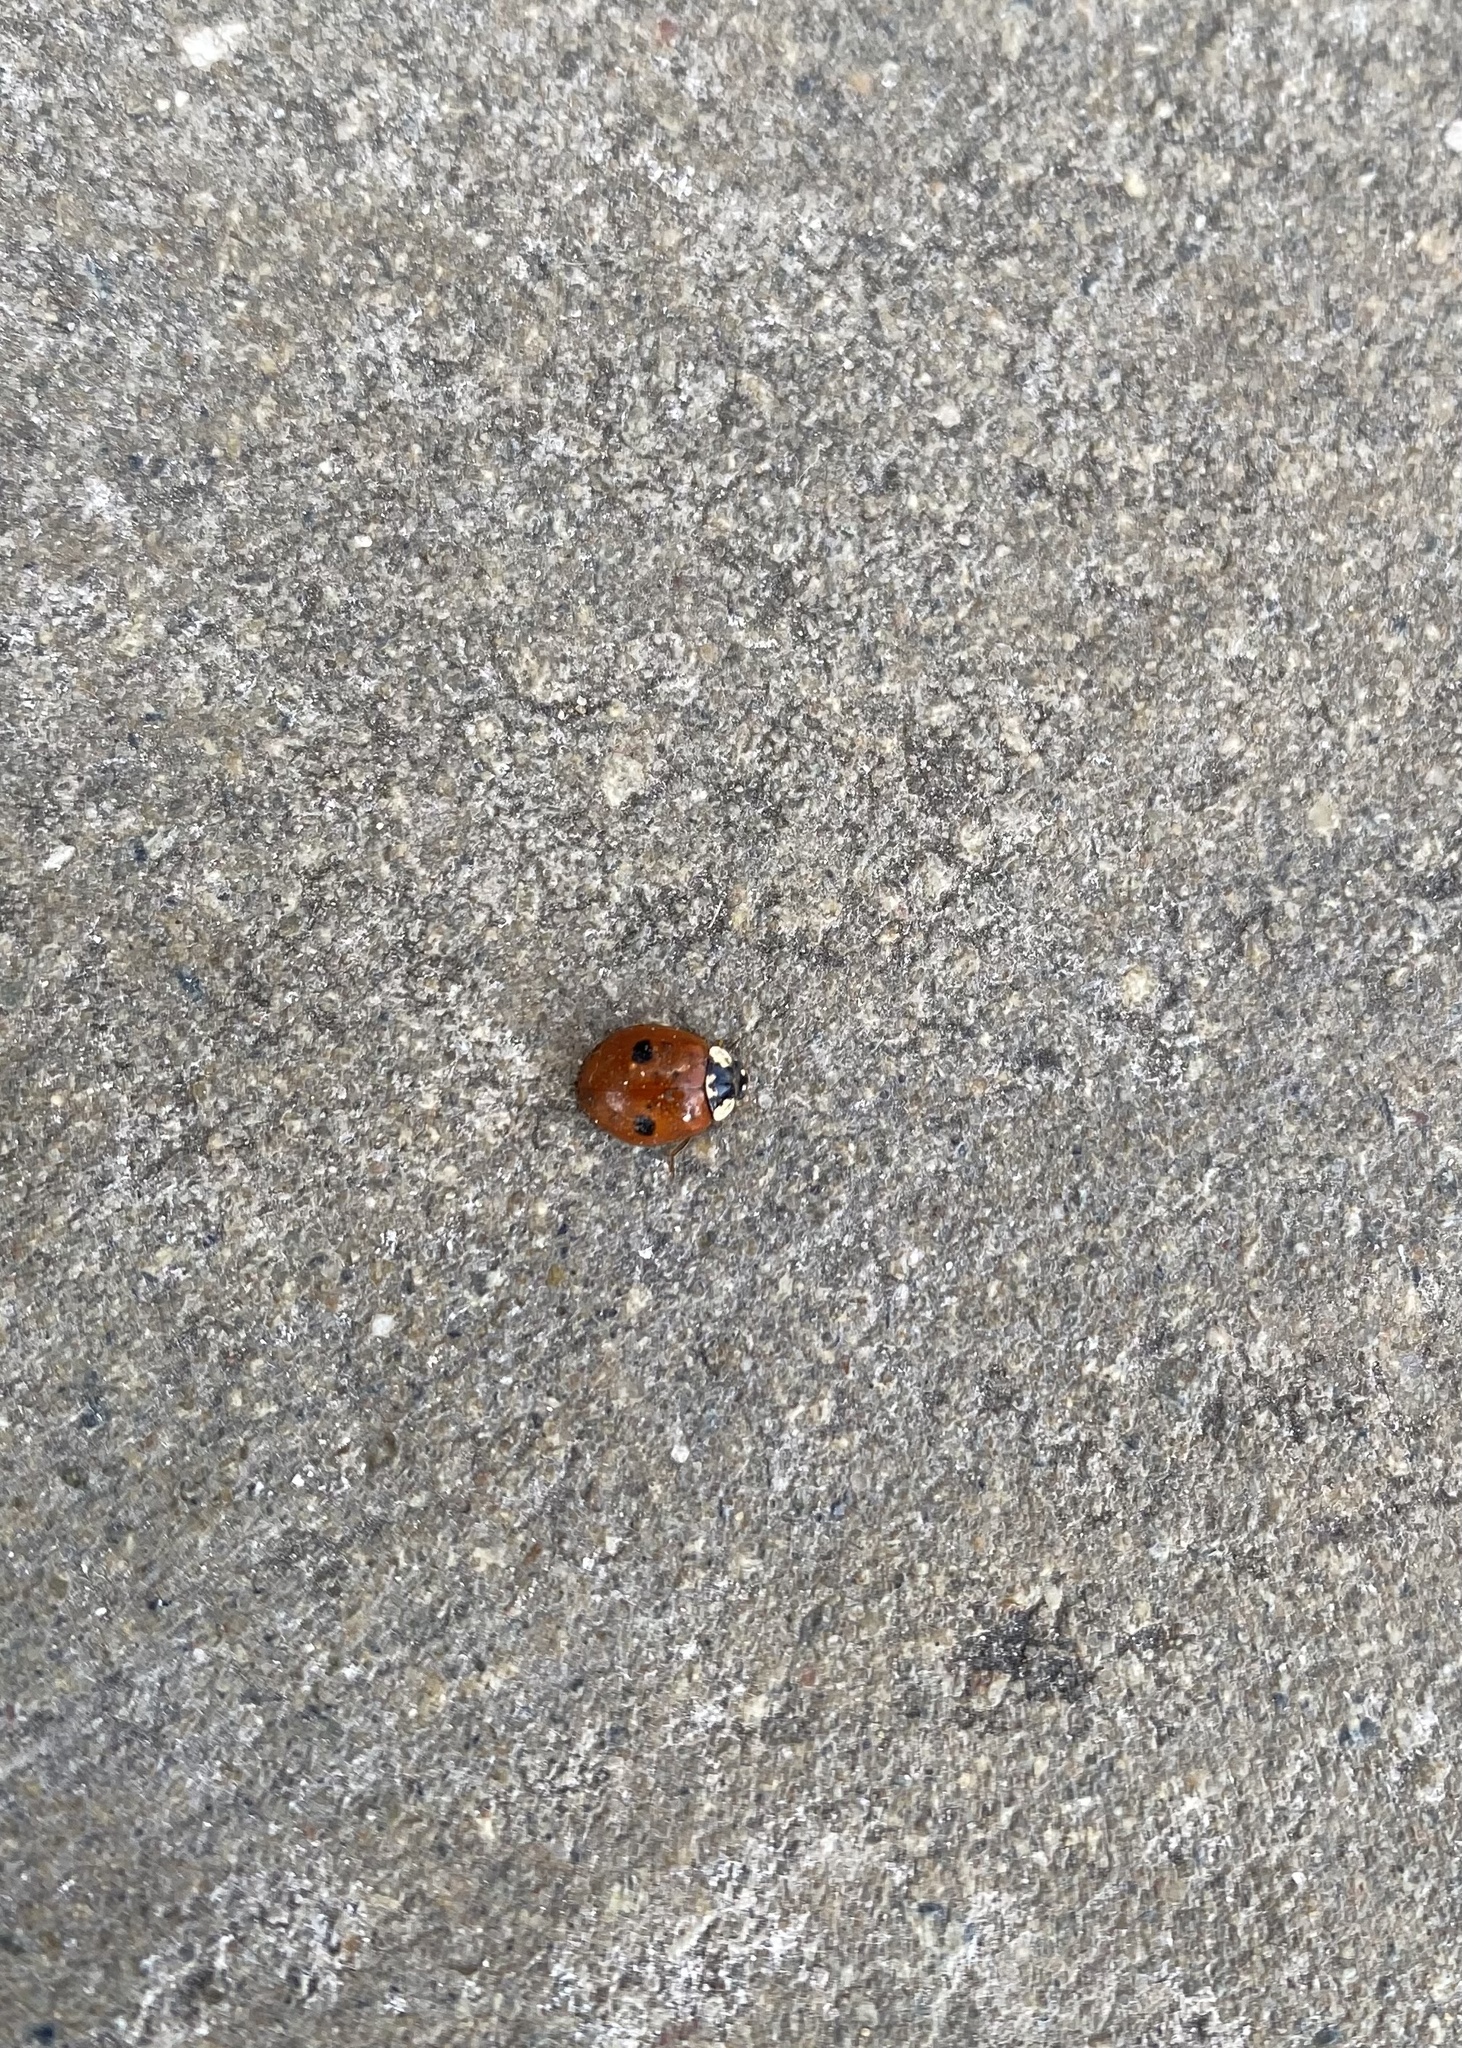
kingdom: Animalia
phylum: Arthropoda
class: Insecta
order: Coleoptera
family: Coccinellidae
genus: Adalia
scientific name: Adalia bipunctata
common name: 2-spot ladybird
